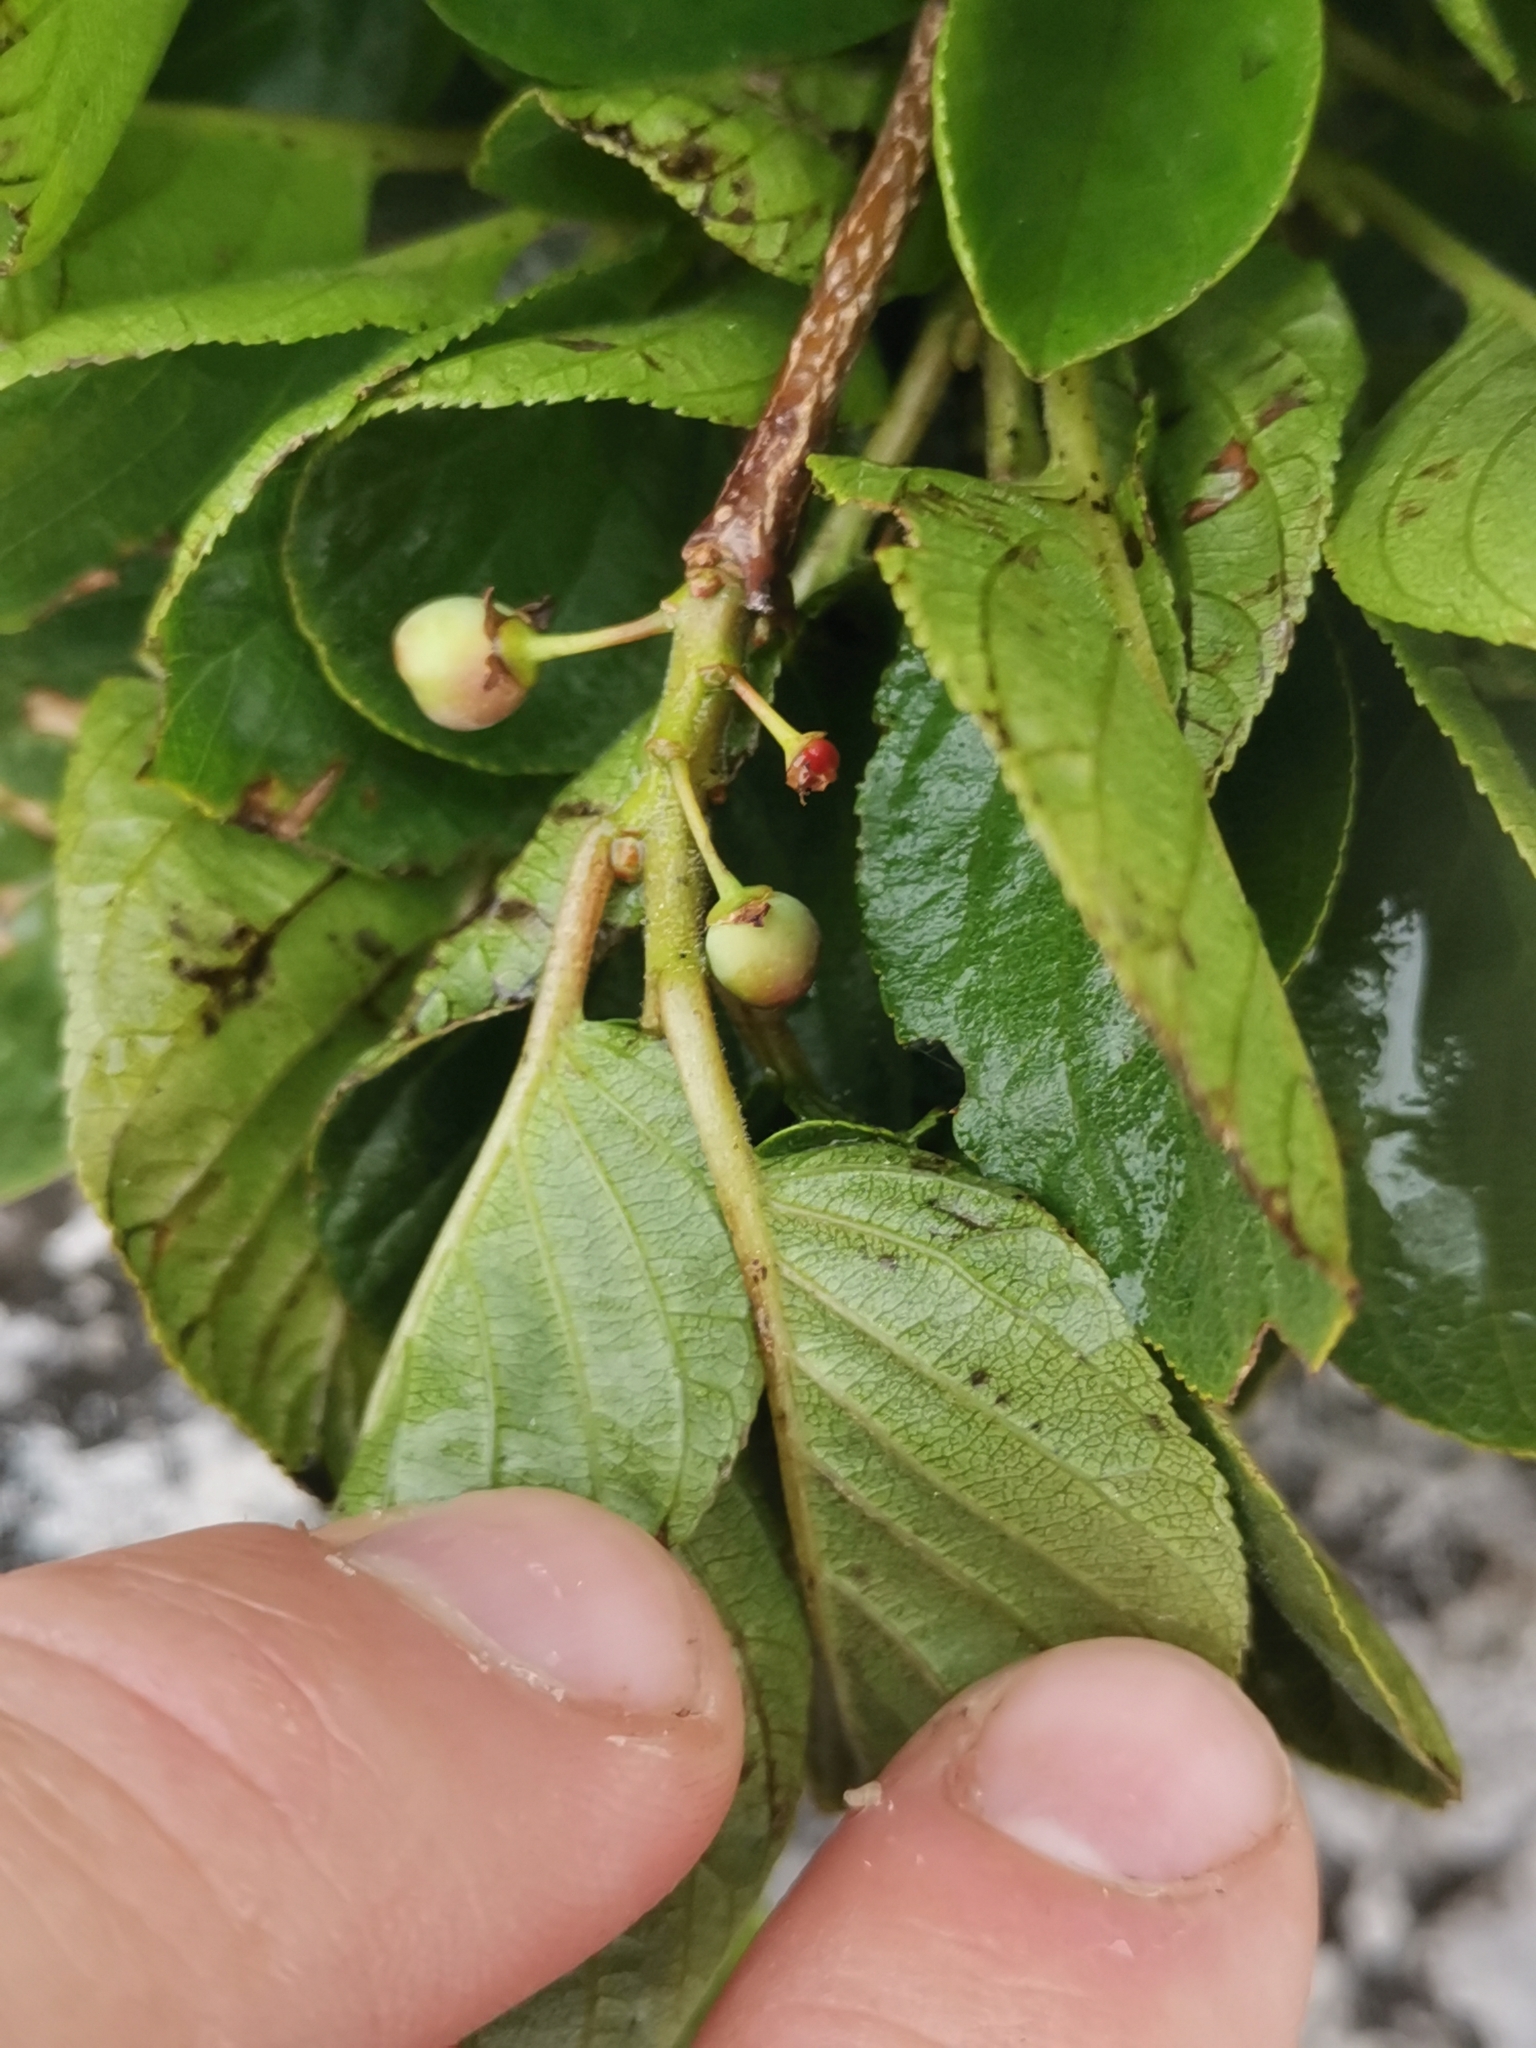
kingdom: Plantae
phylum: Tracheophyta
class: Magnoliopsida
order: Rosales
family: Rhamnaceae
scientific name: Rhamnaceae
